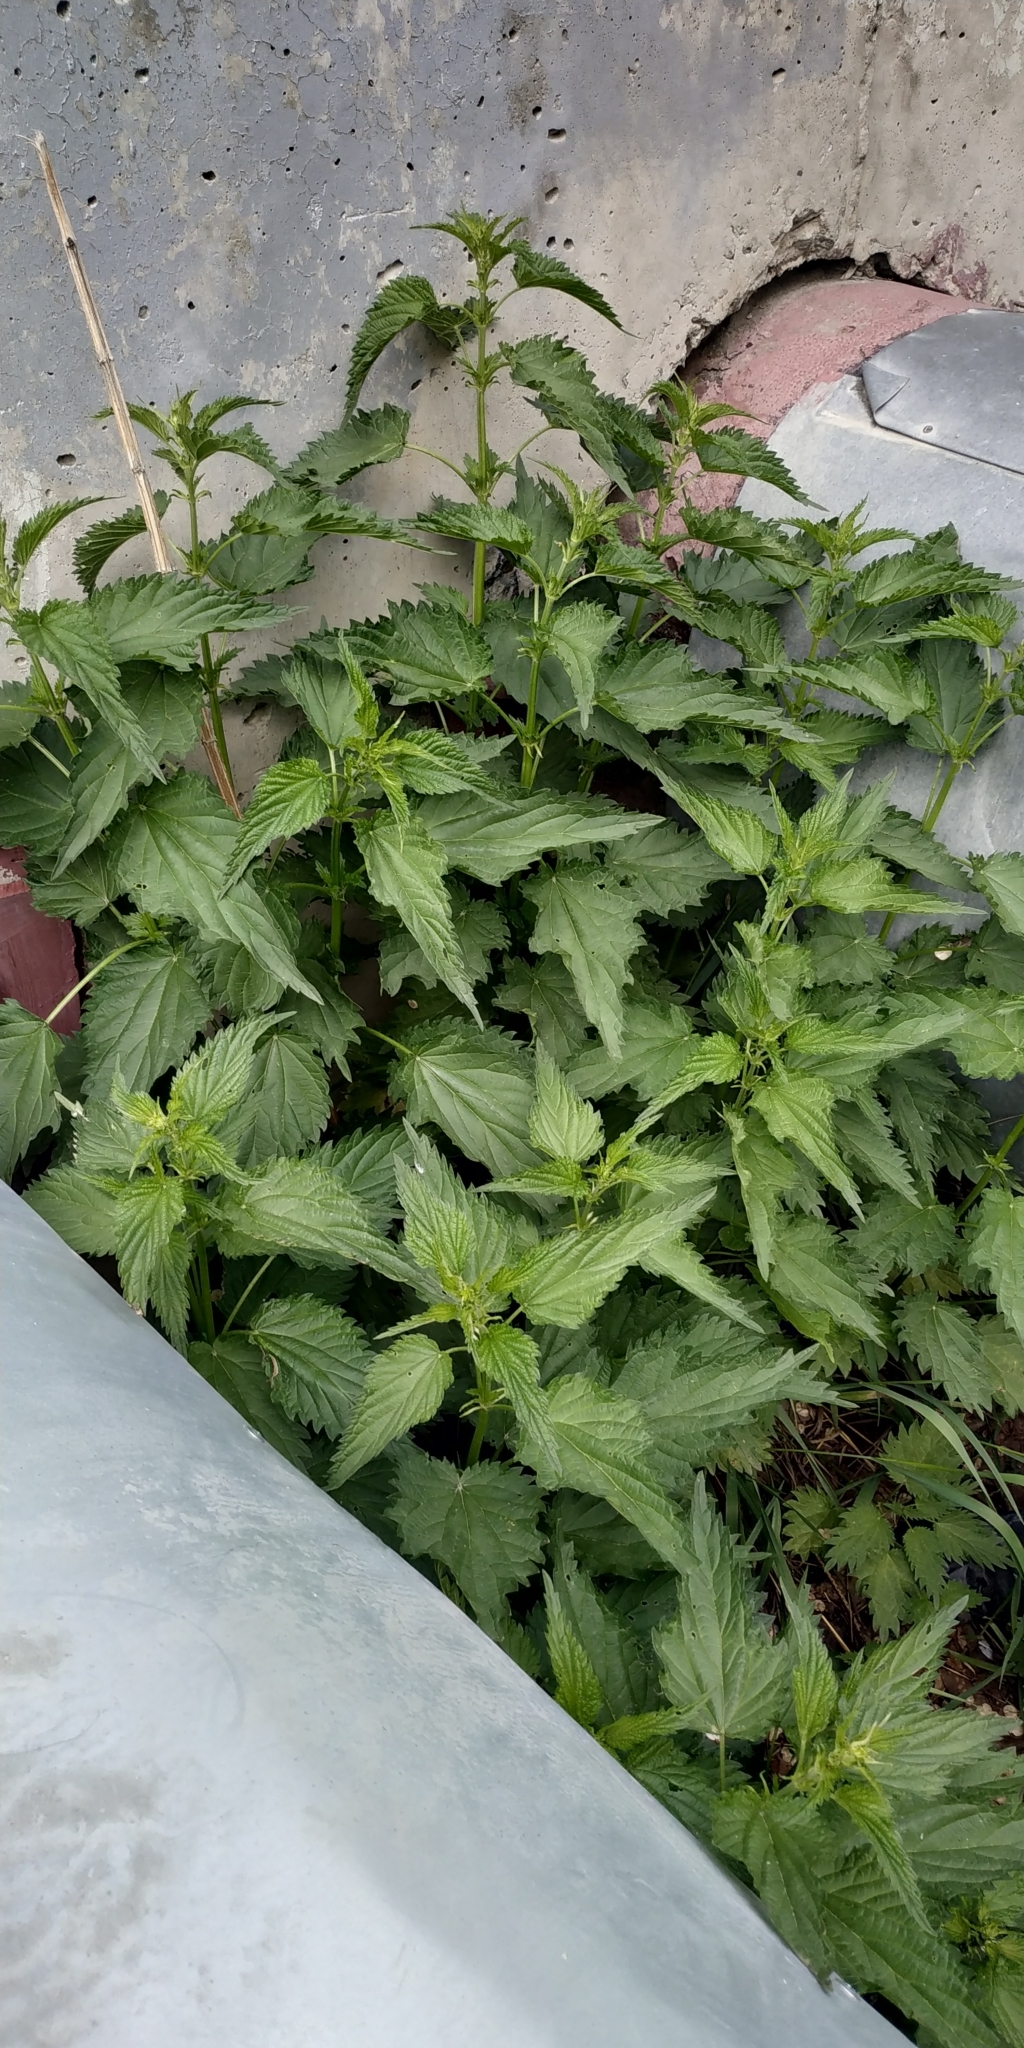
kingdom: Plantae
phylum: Tracheophyta
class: Magnoliopsida
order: Rosales
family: Urticaceae
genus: Urtica
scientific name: Urtica dioica
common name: Common nettle
